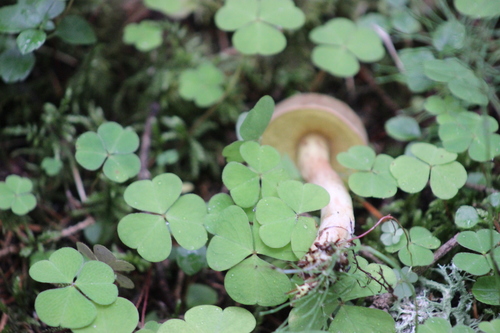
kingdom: Fungi
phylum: Basidiomycota
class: Agaricomycetes
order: Boletales
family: Boletaceae
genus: Xerocomus
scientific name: Xerocomus subtomentosus
